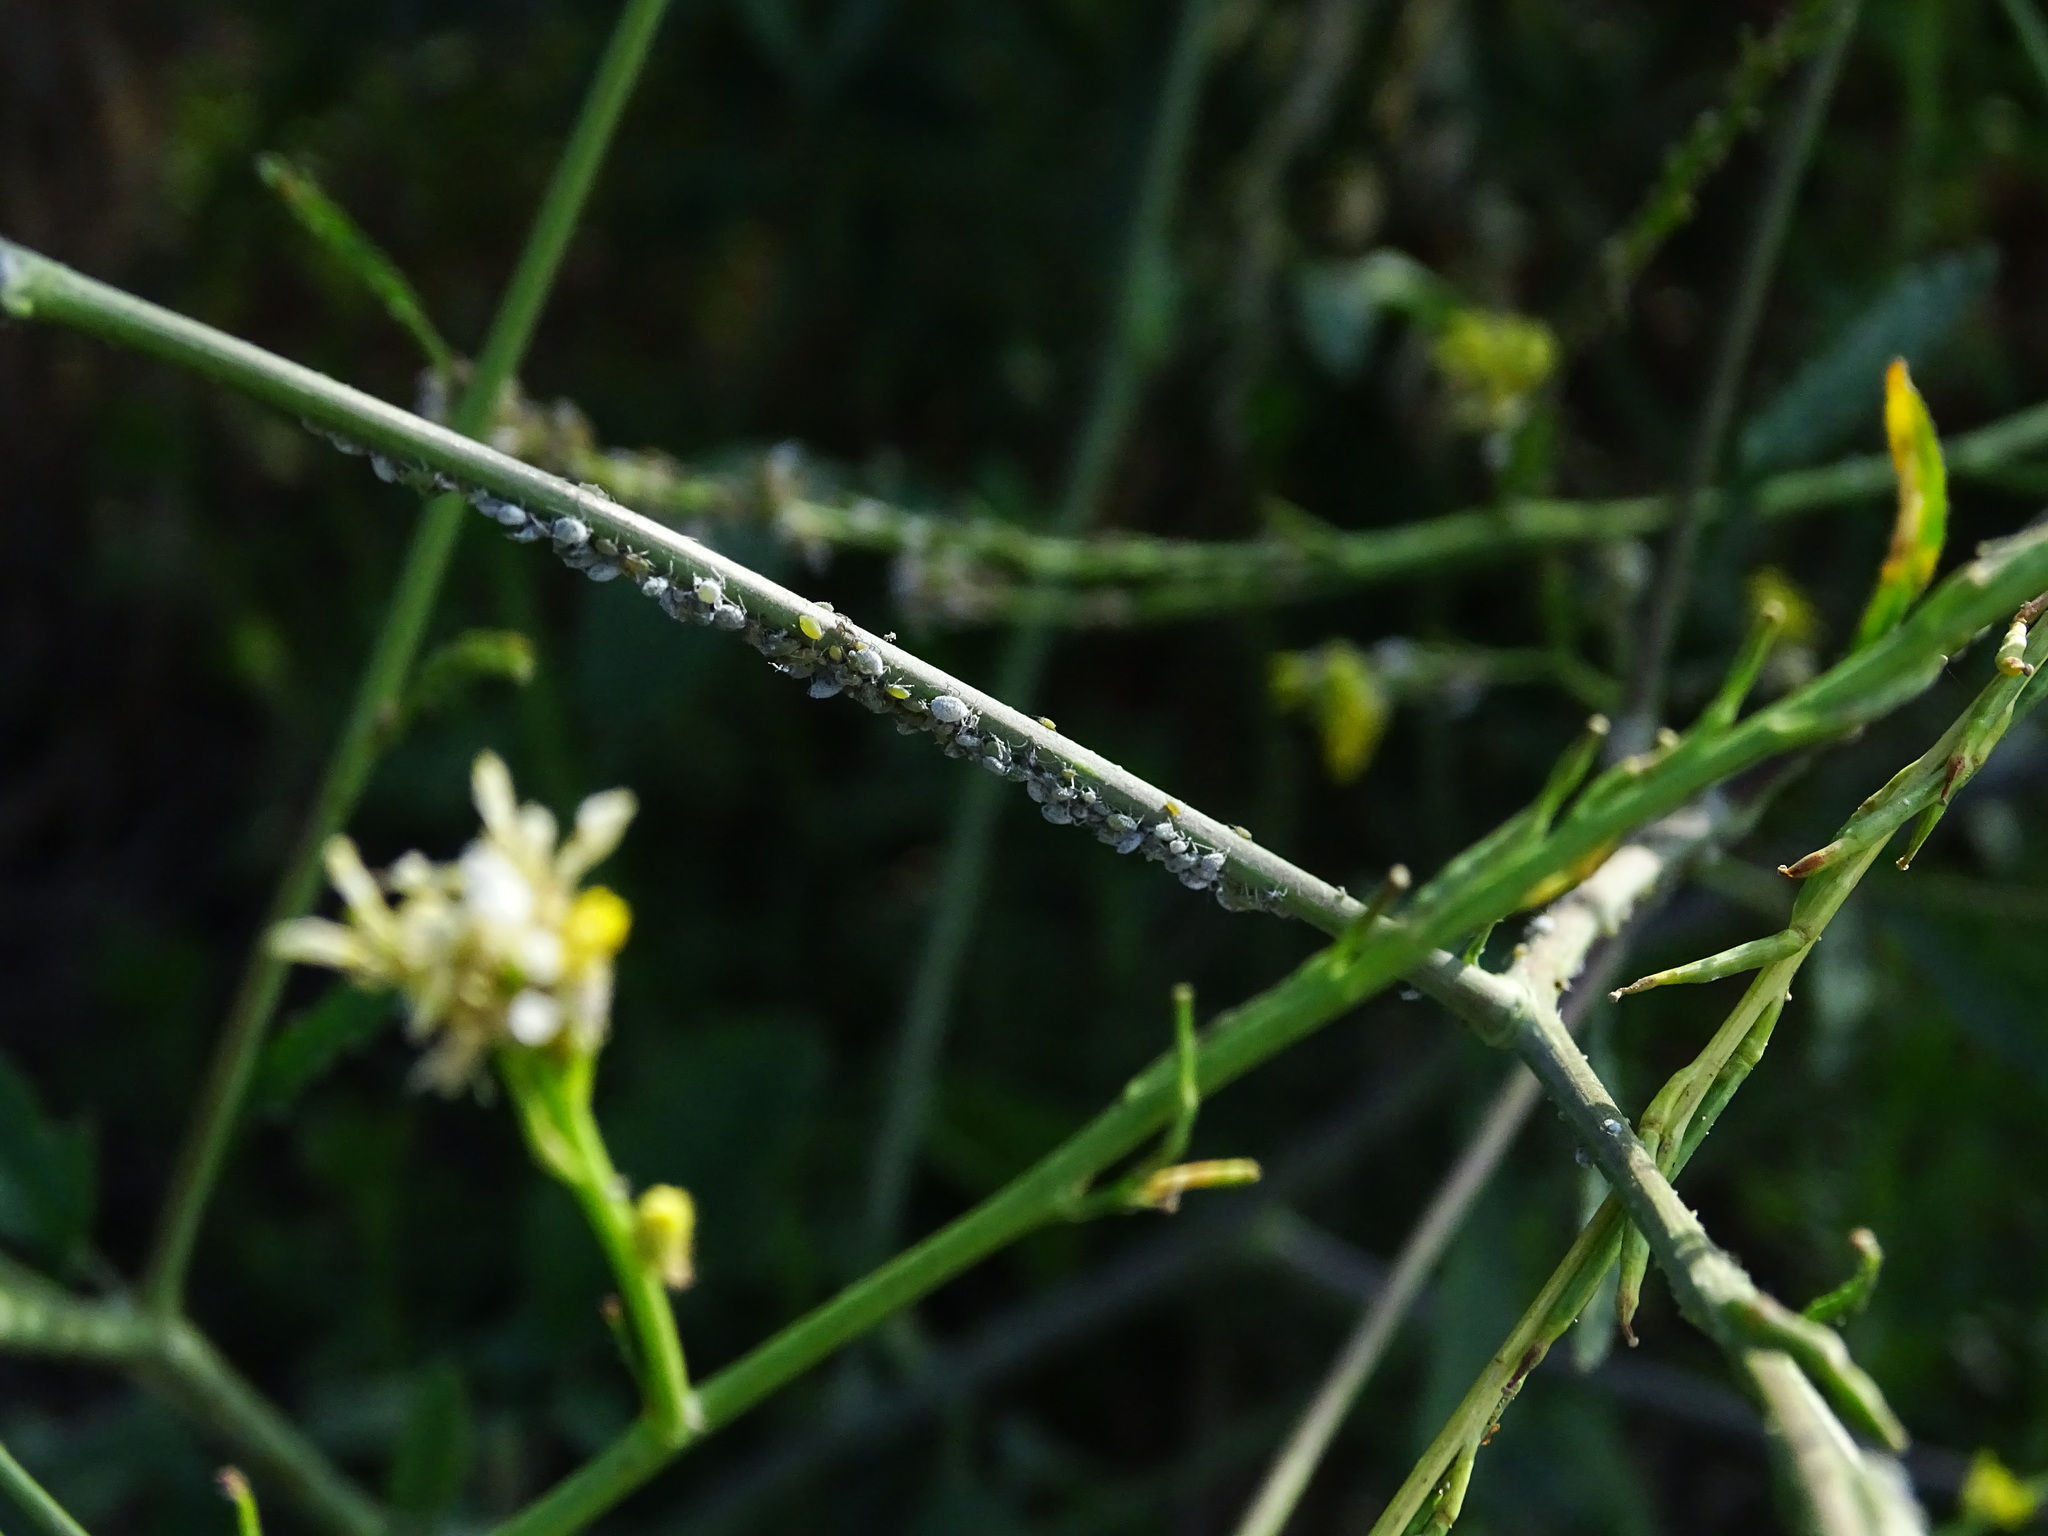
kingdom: Animalia
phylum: Arthropoda
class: Insecta
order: Hemiptera
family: Aphididae
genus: Brevicoryne
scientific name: Brevicoryne brassicae
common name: Cabbage aphid
